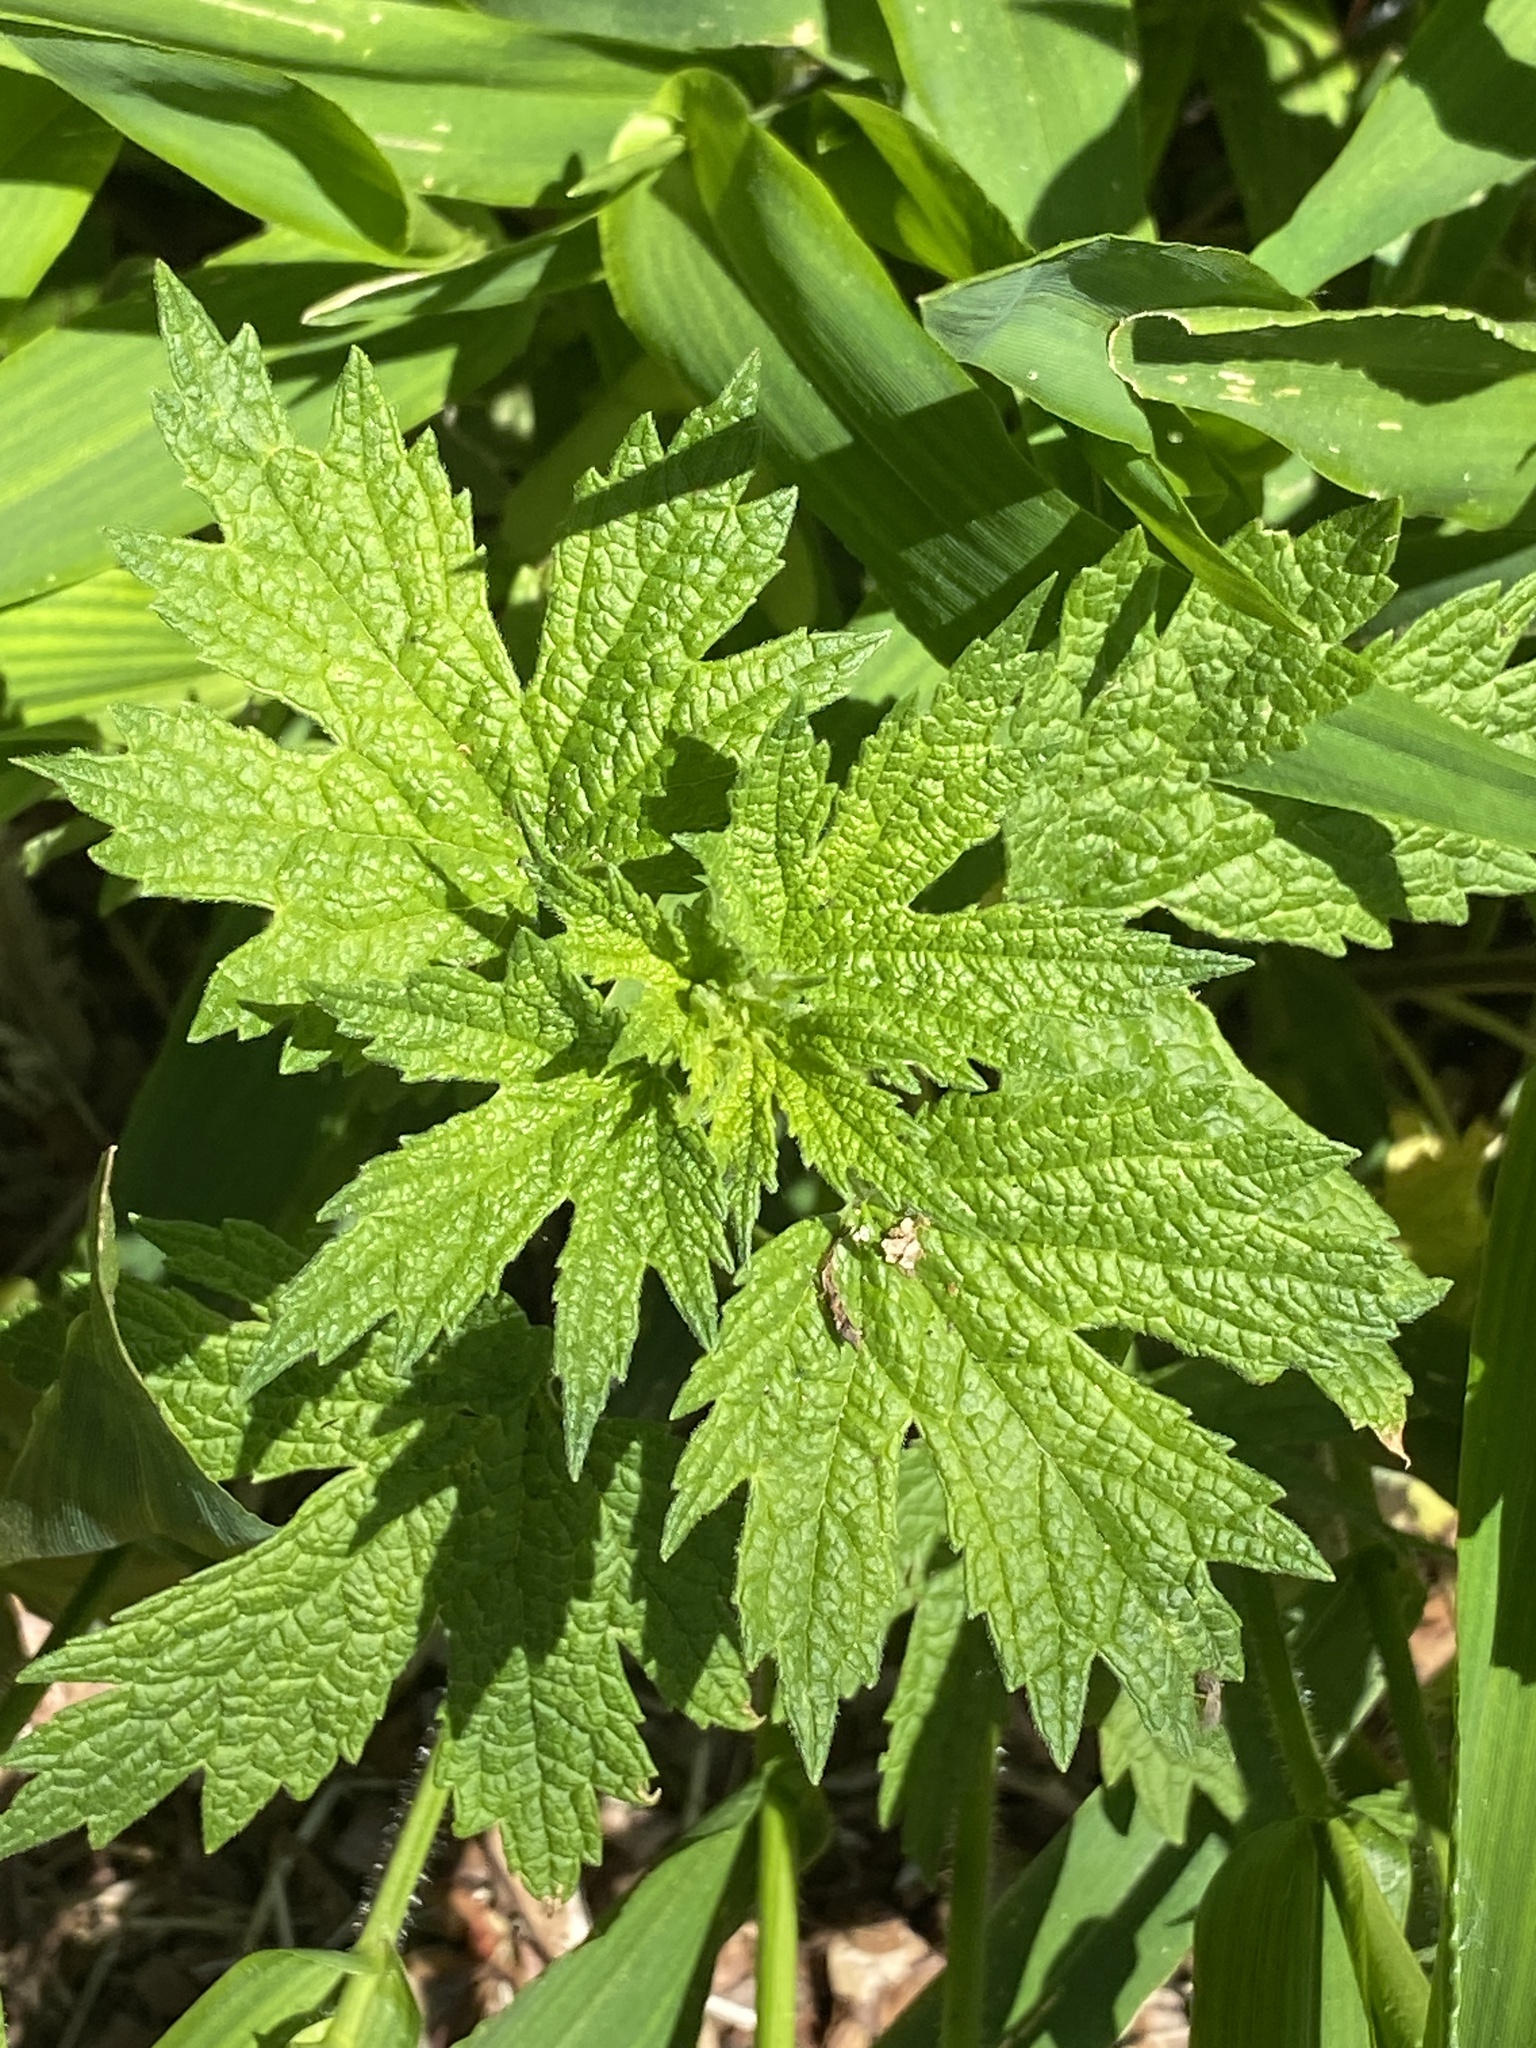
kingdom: Plantae
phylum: Tracheophyta
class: Magnoliopsida
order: Lamiales
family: Lamiaceae
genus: Leonurus
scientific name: Leonurus cardiaca
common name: Motherwort
